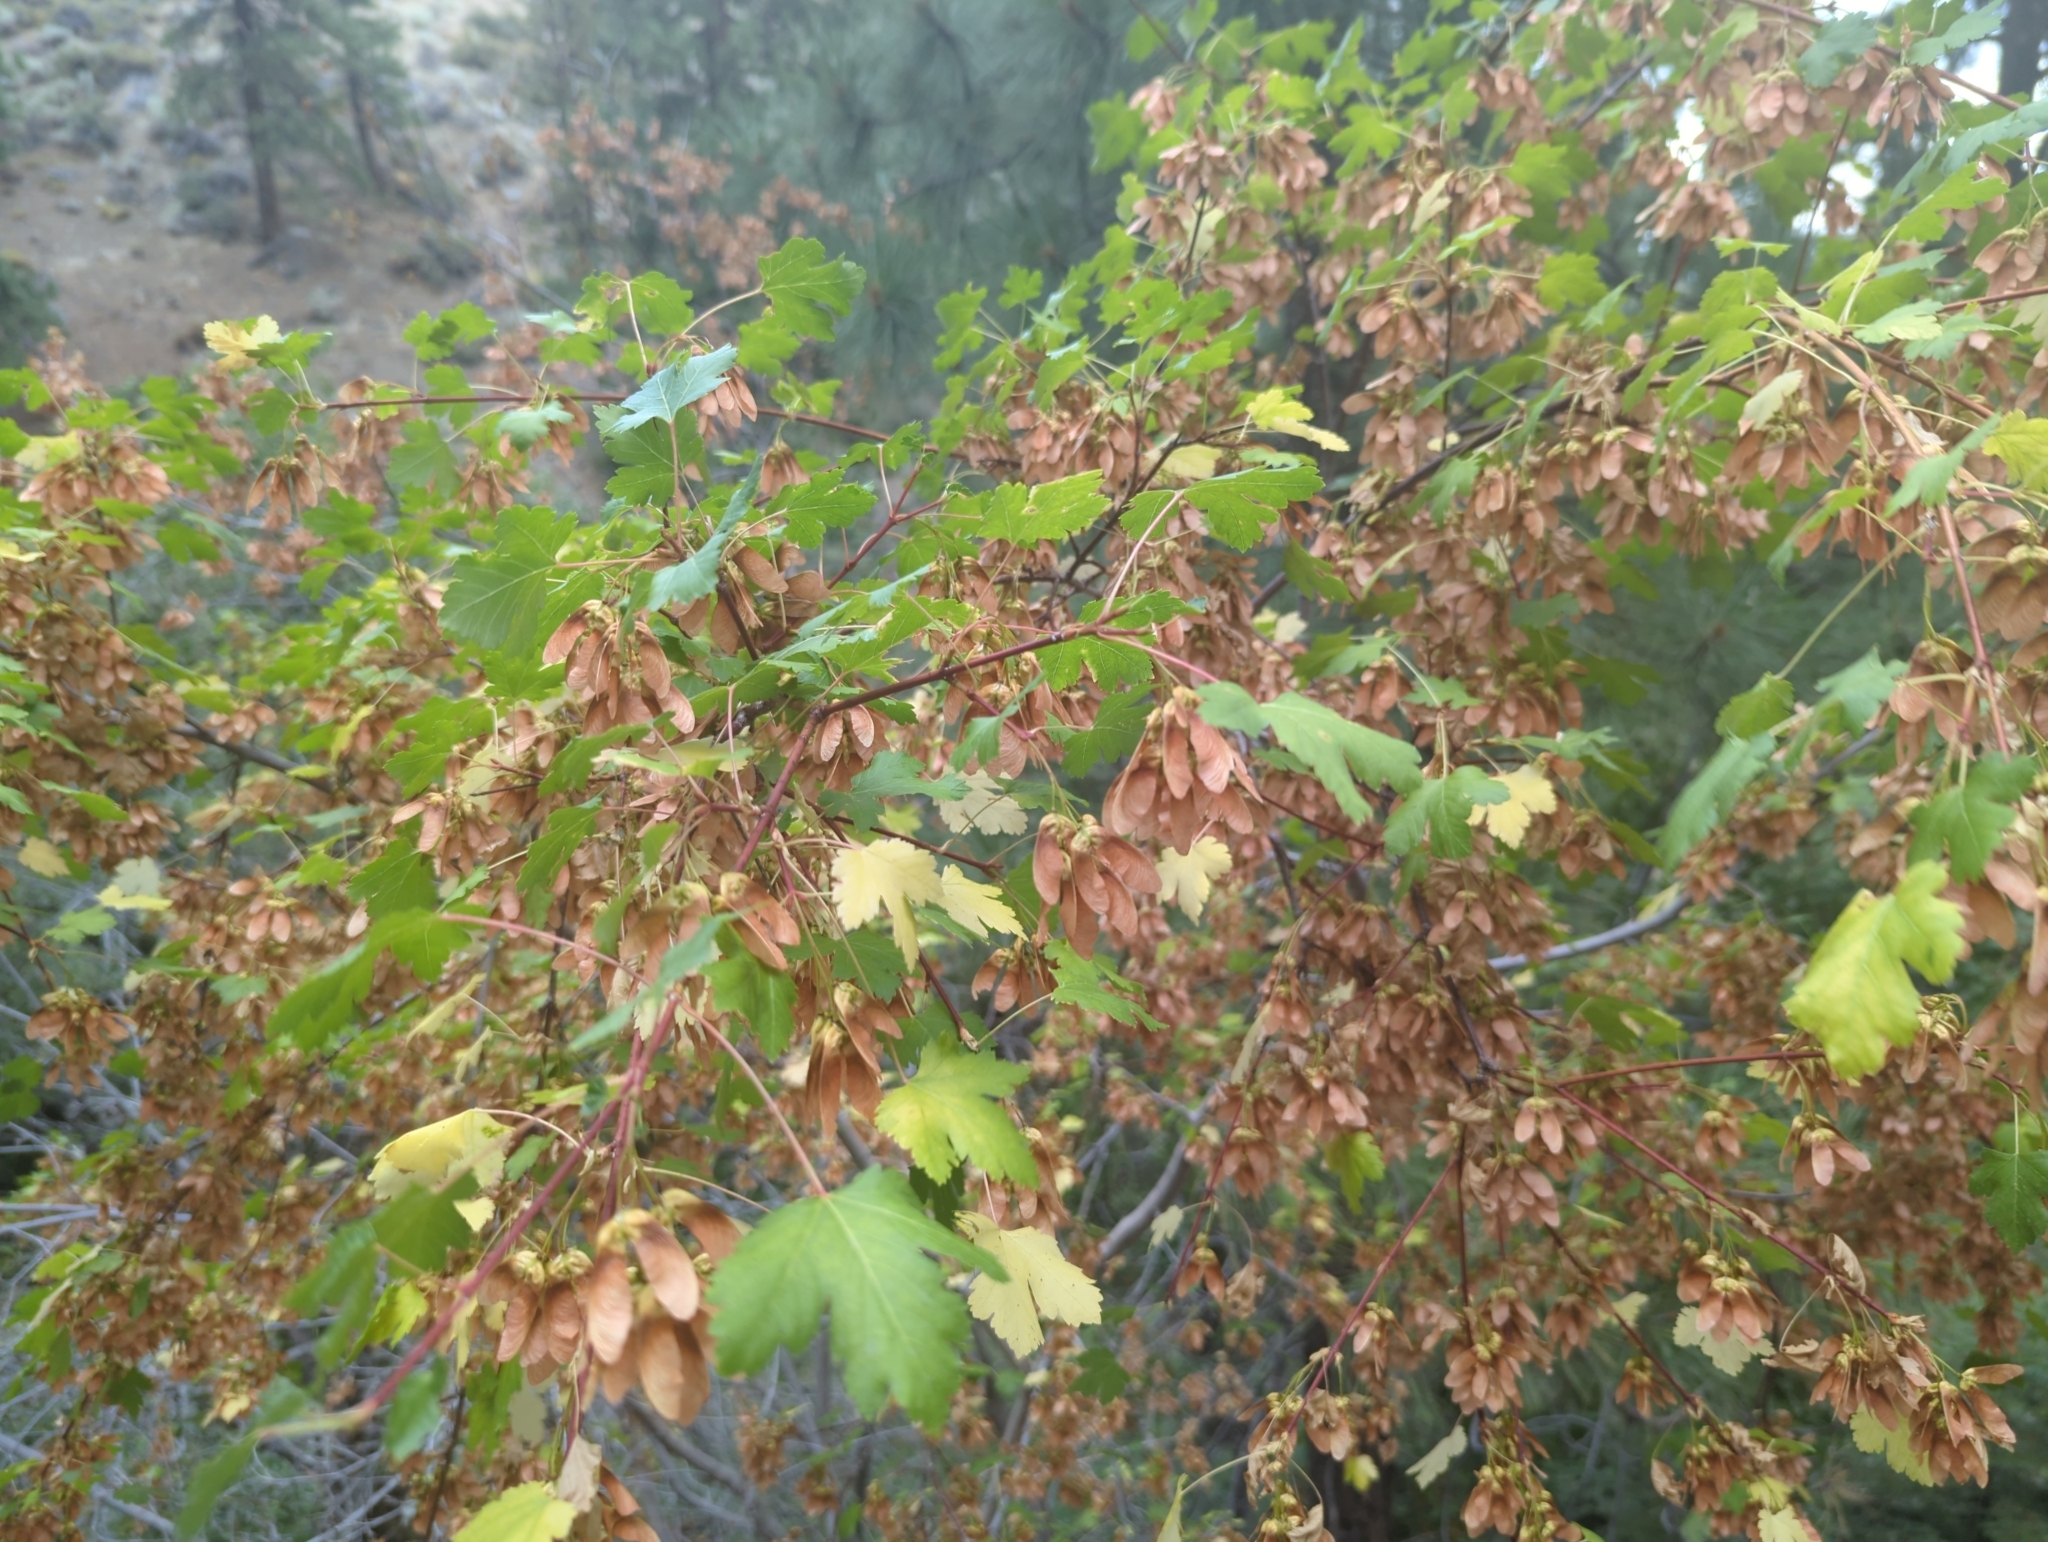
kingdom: Plantae
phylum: Tracheophyta
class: Magnoliopsida
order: Sapindales
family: Sapindaceae
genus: Acer
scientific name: Acer glabrum
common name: Rocky mountain maple
